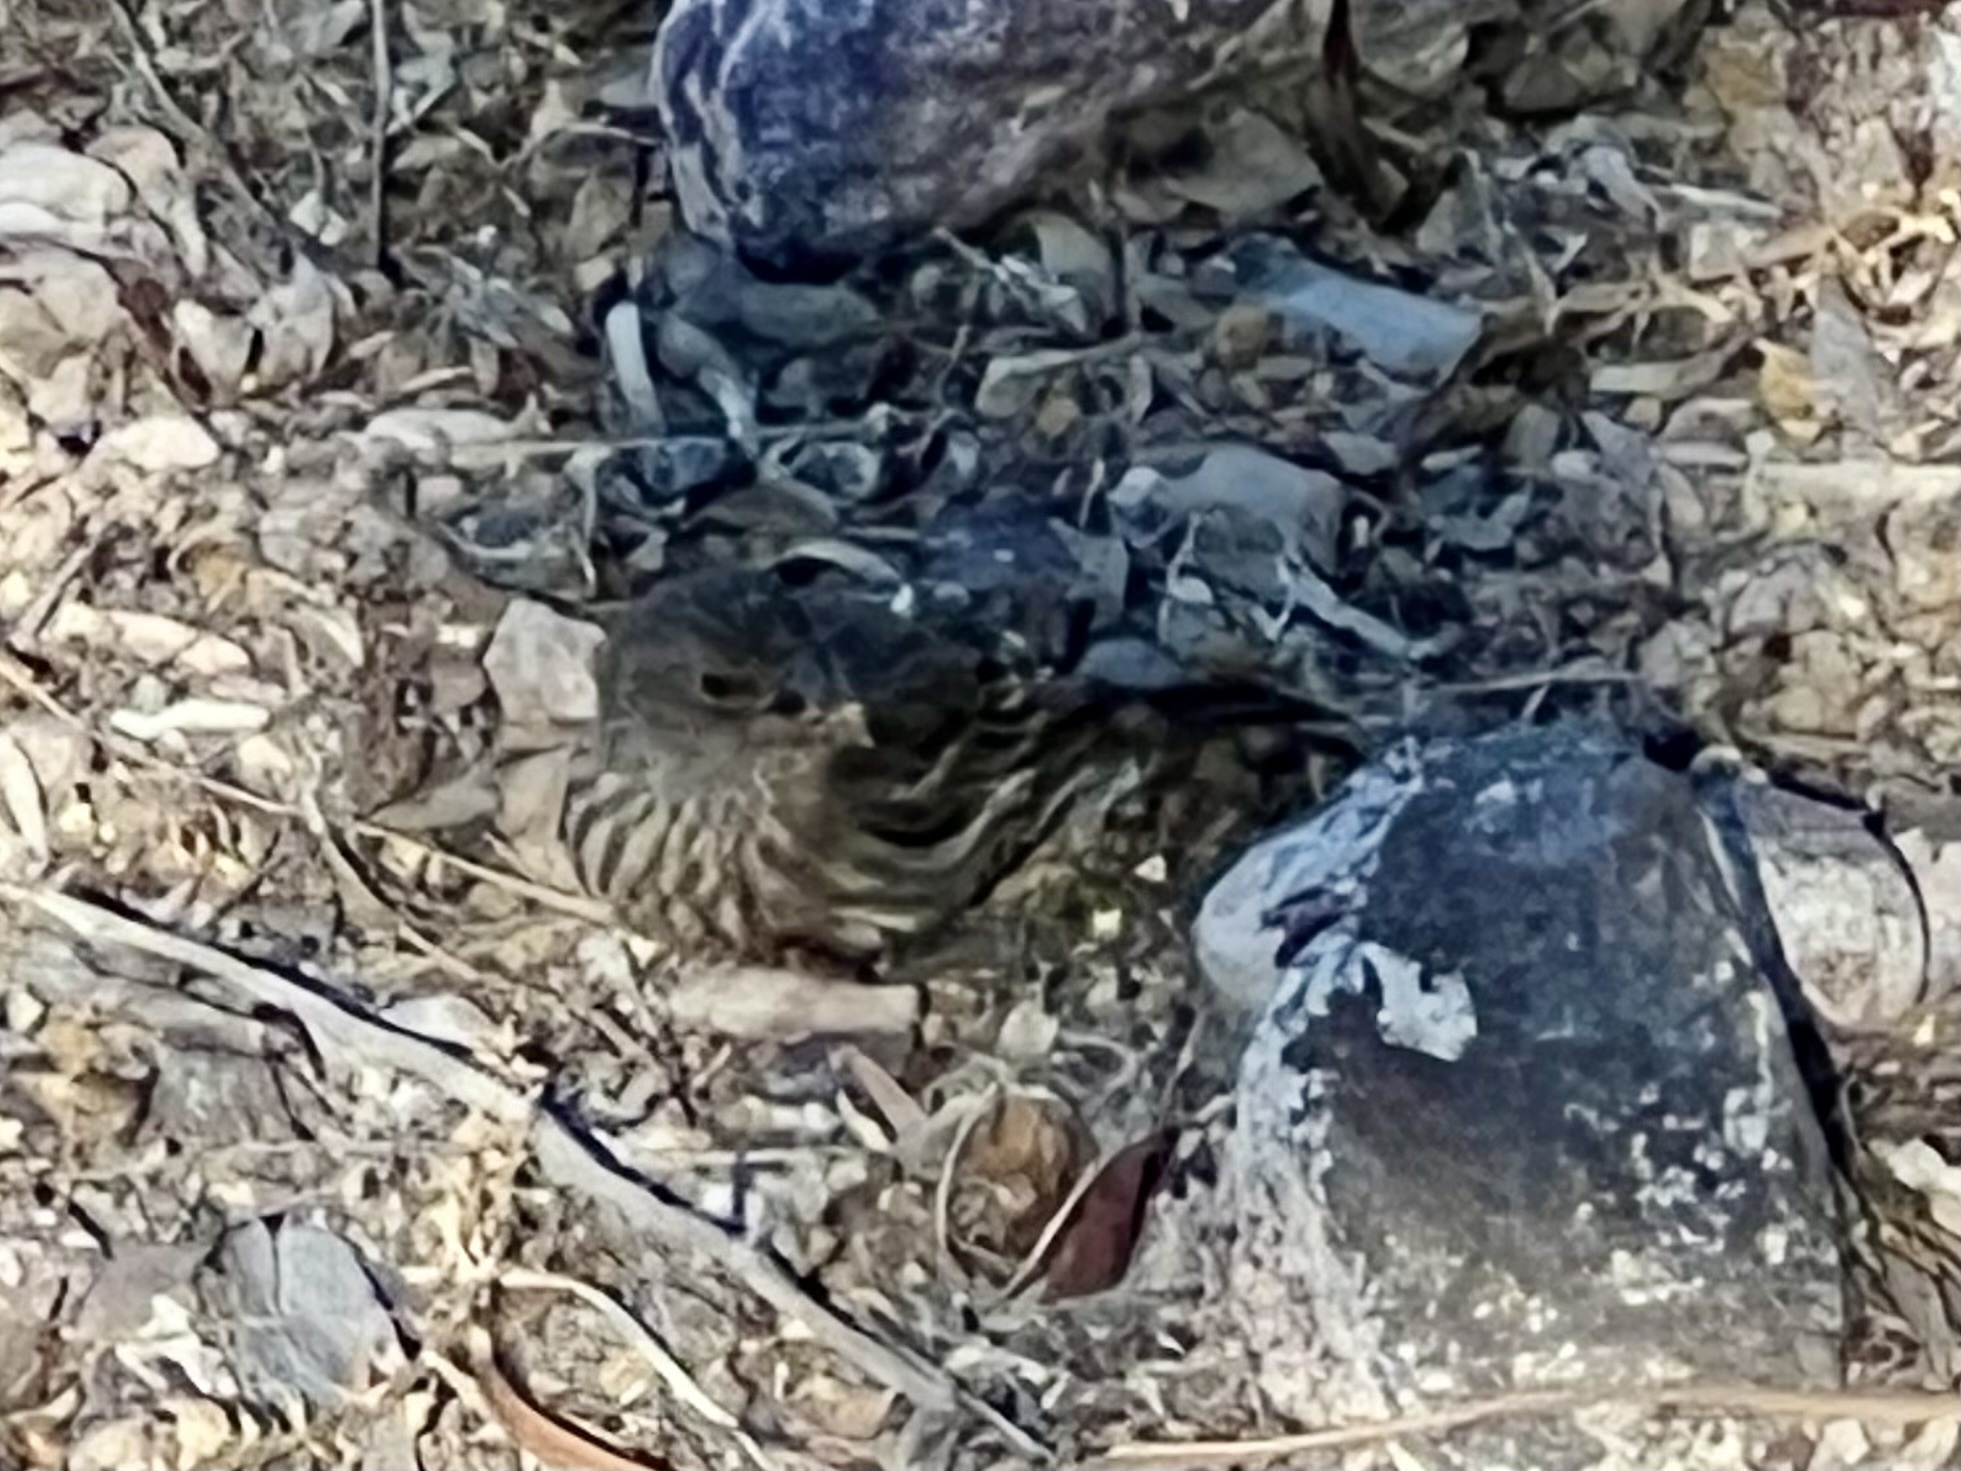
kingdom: Animalia
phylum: Chordata
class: Aves
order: Passeriformes
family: Fringillidae
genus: Haemorhous
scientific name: Haemorhous mexicanus
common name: House finch
